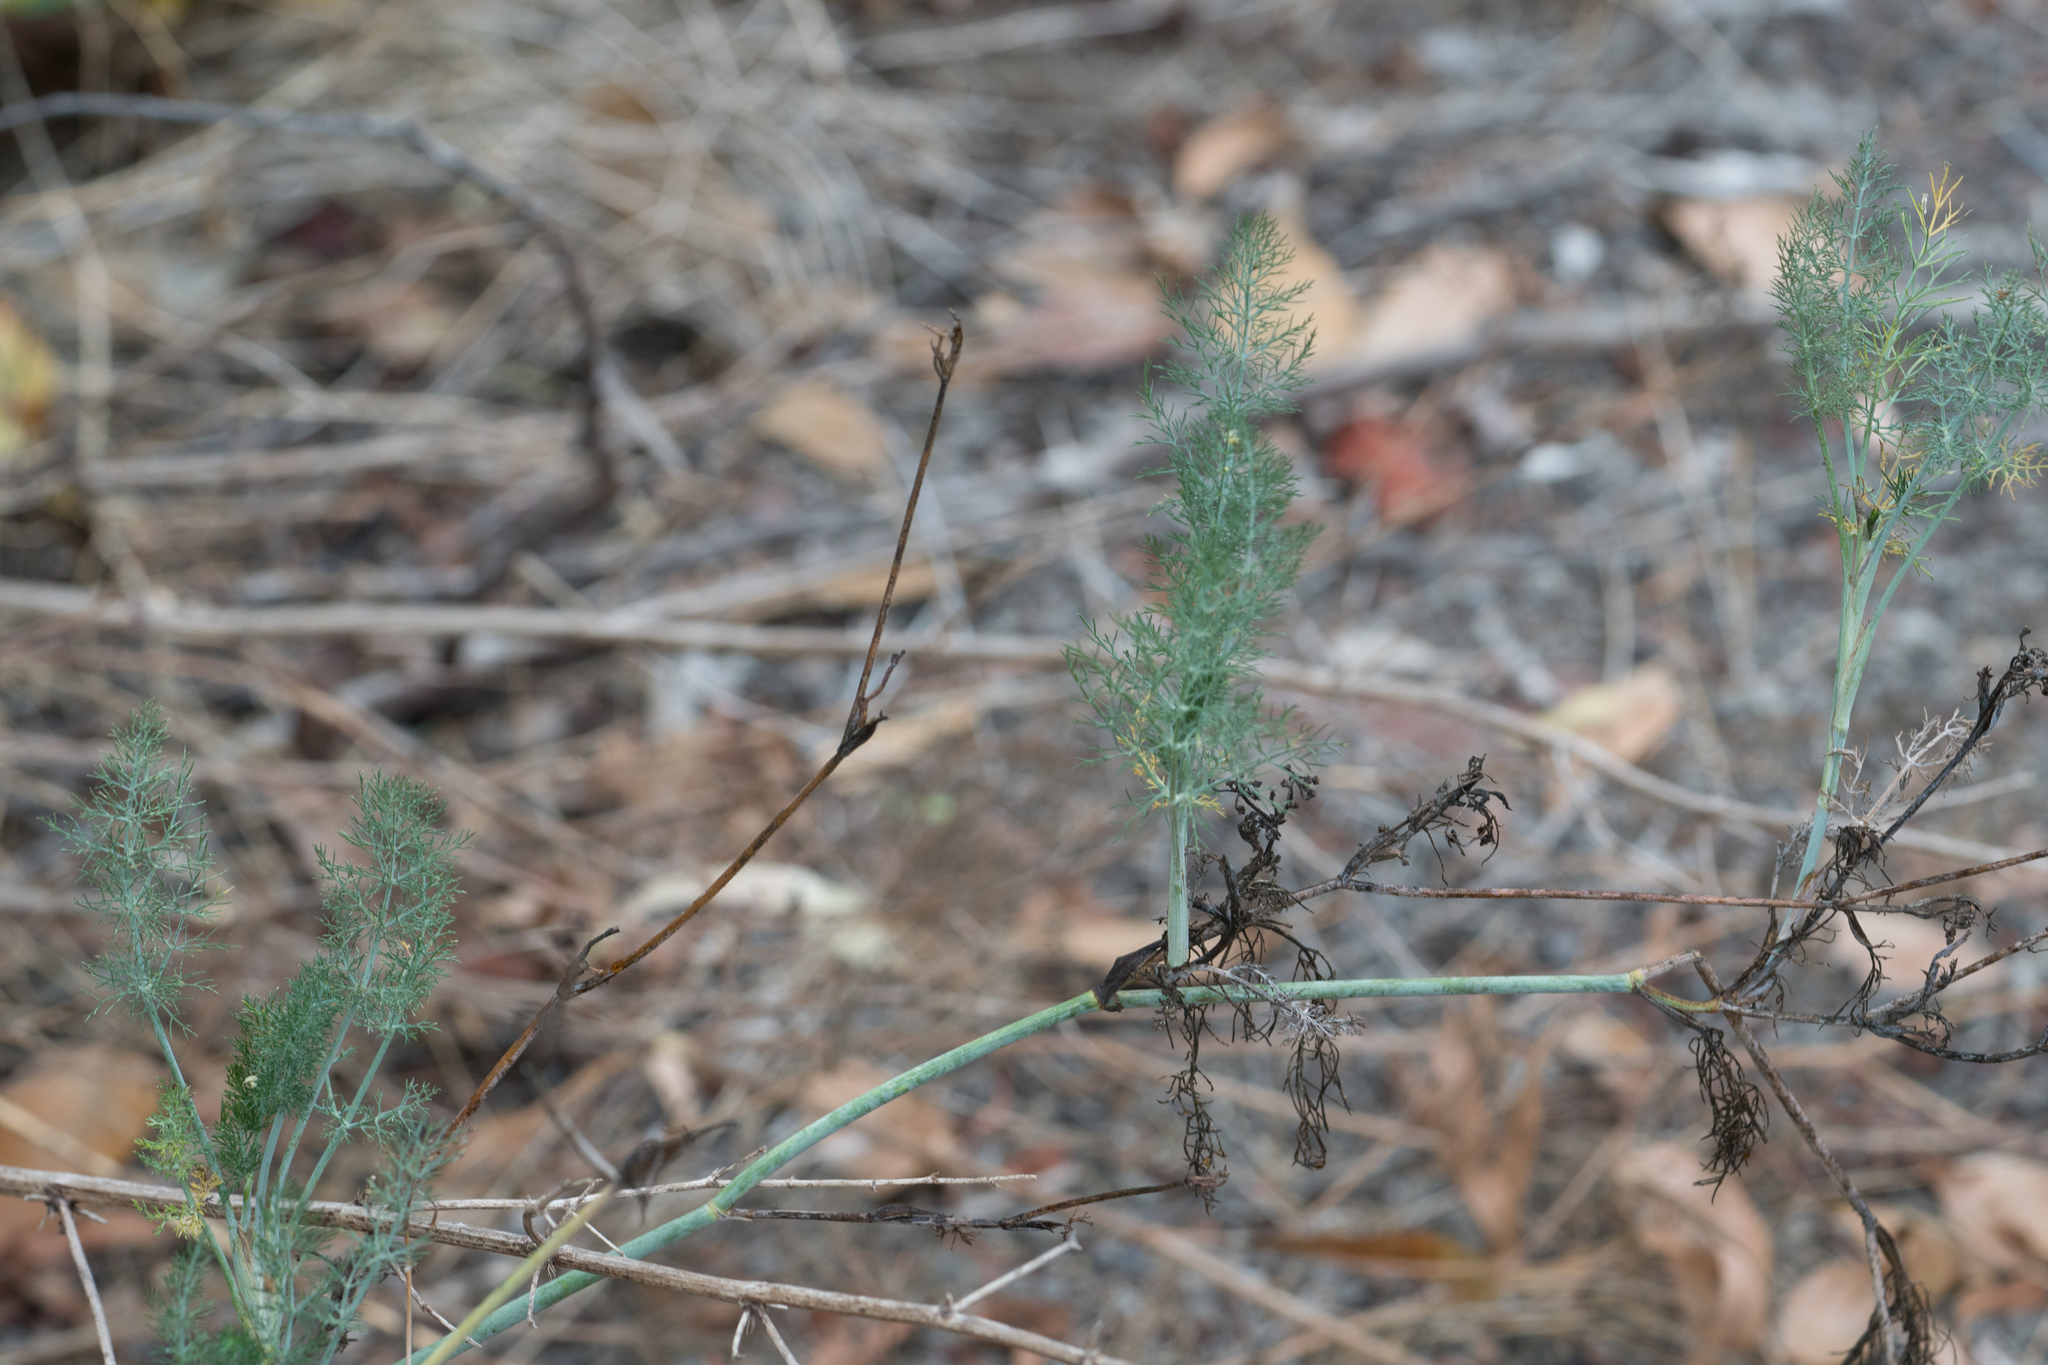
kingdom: Plantae
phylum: Tracheophyta
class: Magnoliopsida
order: Apiales
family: Apiaceae
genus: Foeniculum
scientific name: Foeniculum vulgare
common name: Fennel
